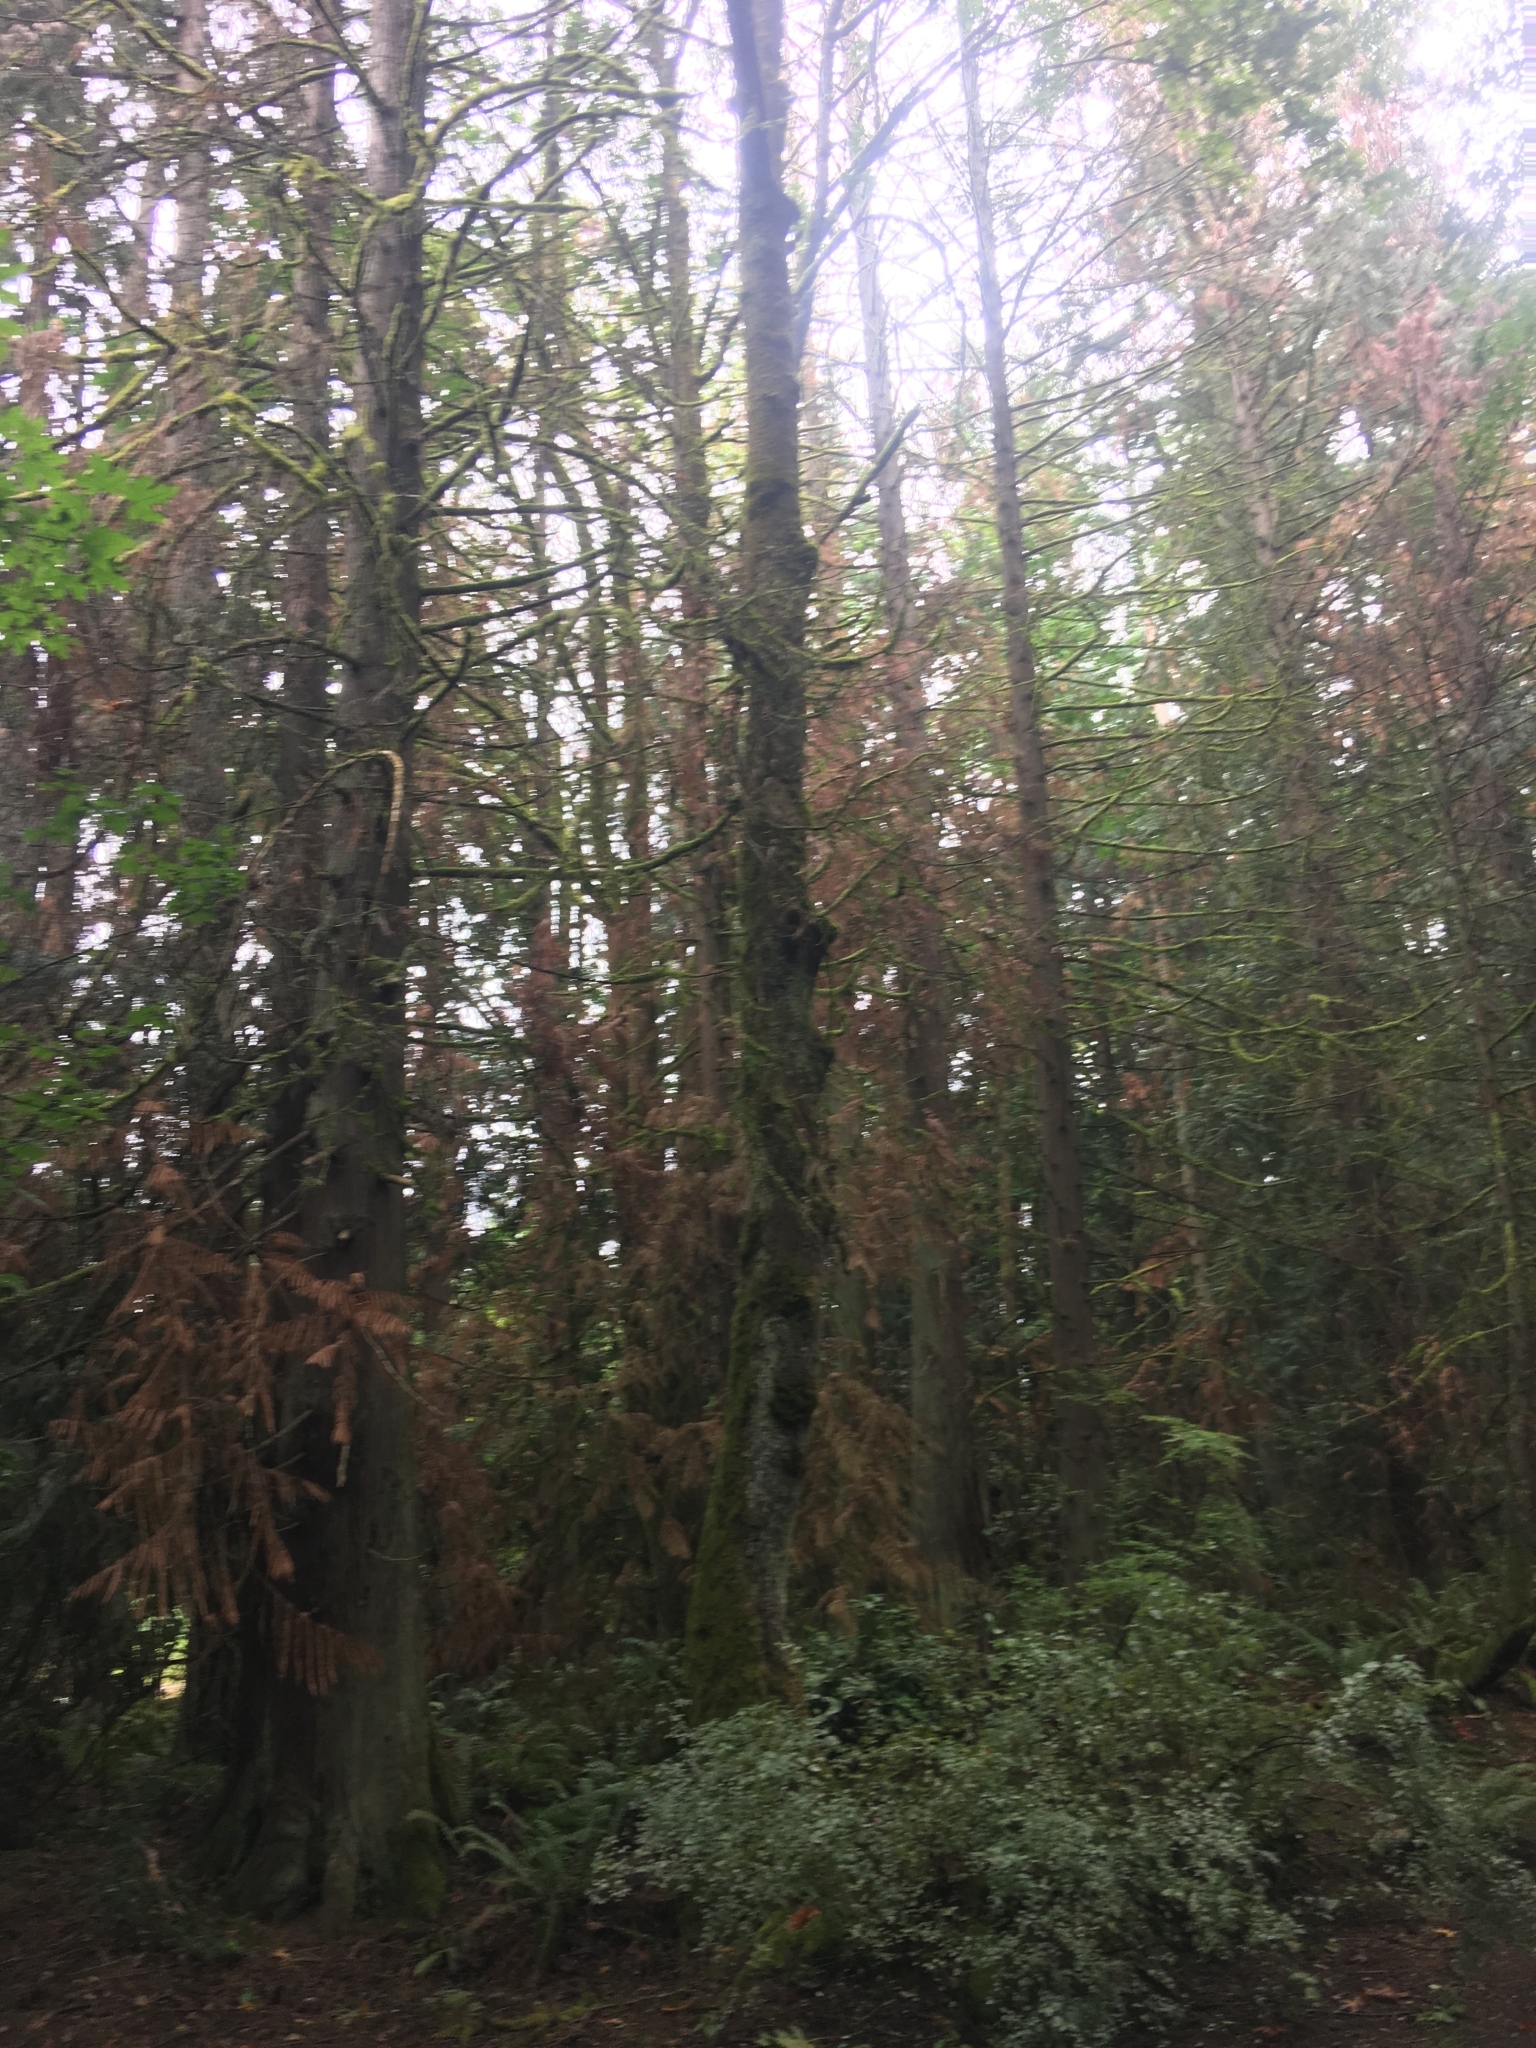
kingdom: Plantae
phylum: Tracheophyta
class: Pinopsida
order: Pinales
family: Cupressaceae
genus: Thuja
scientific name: Thuja plicata
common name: Western red-cedar
